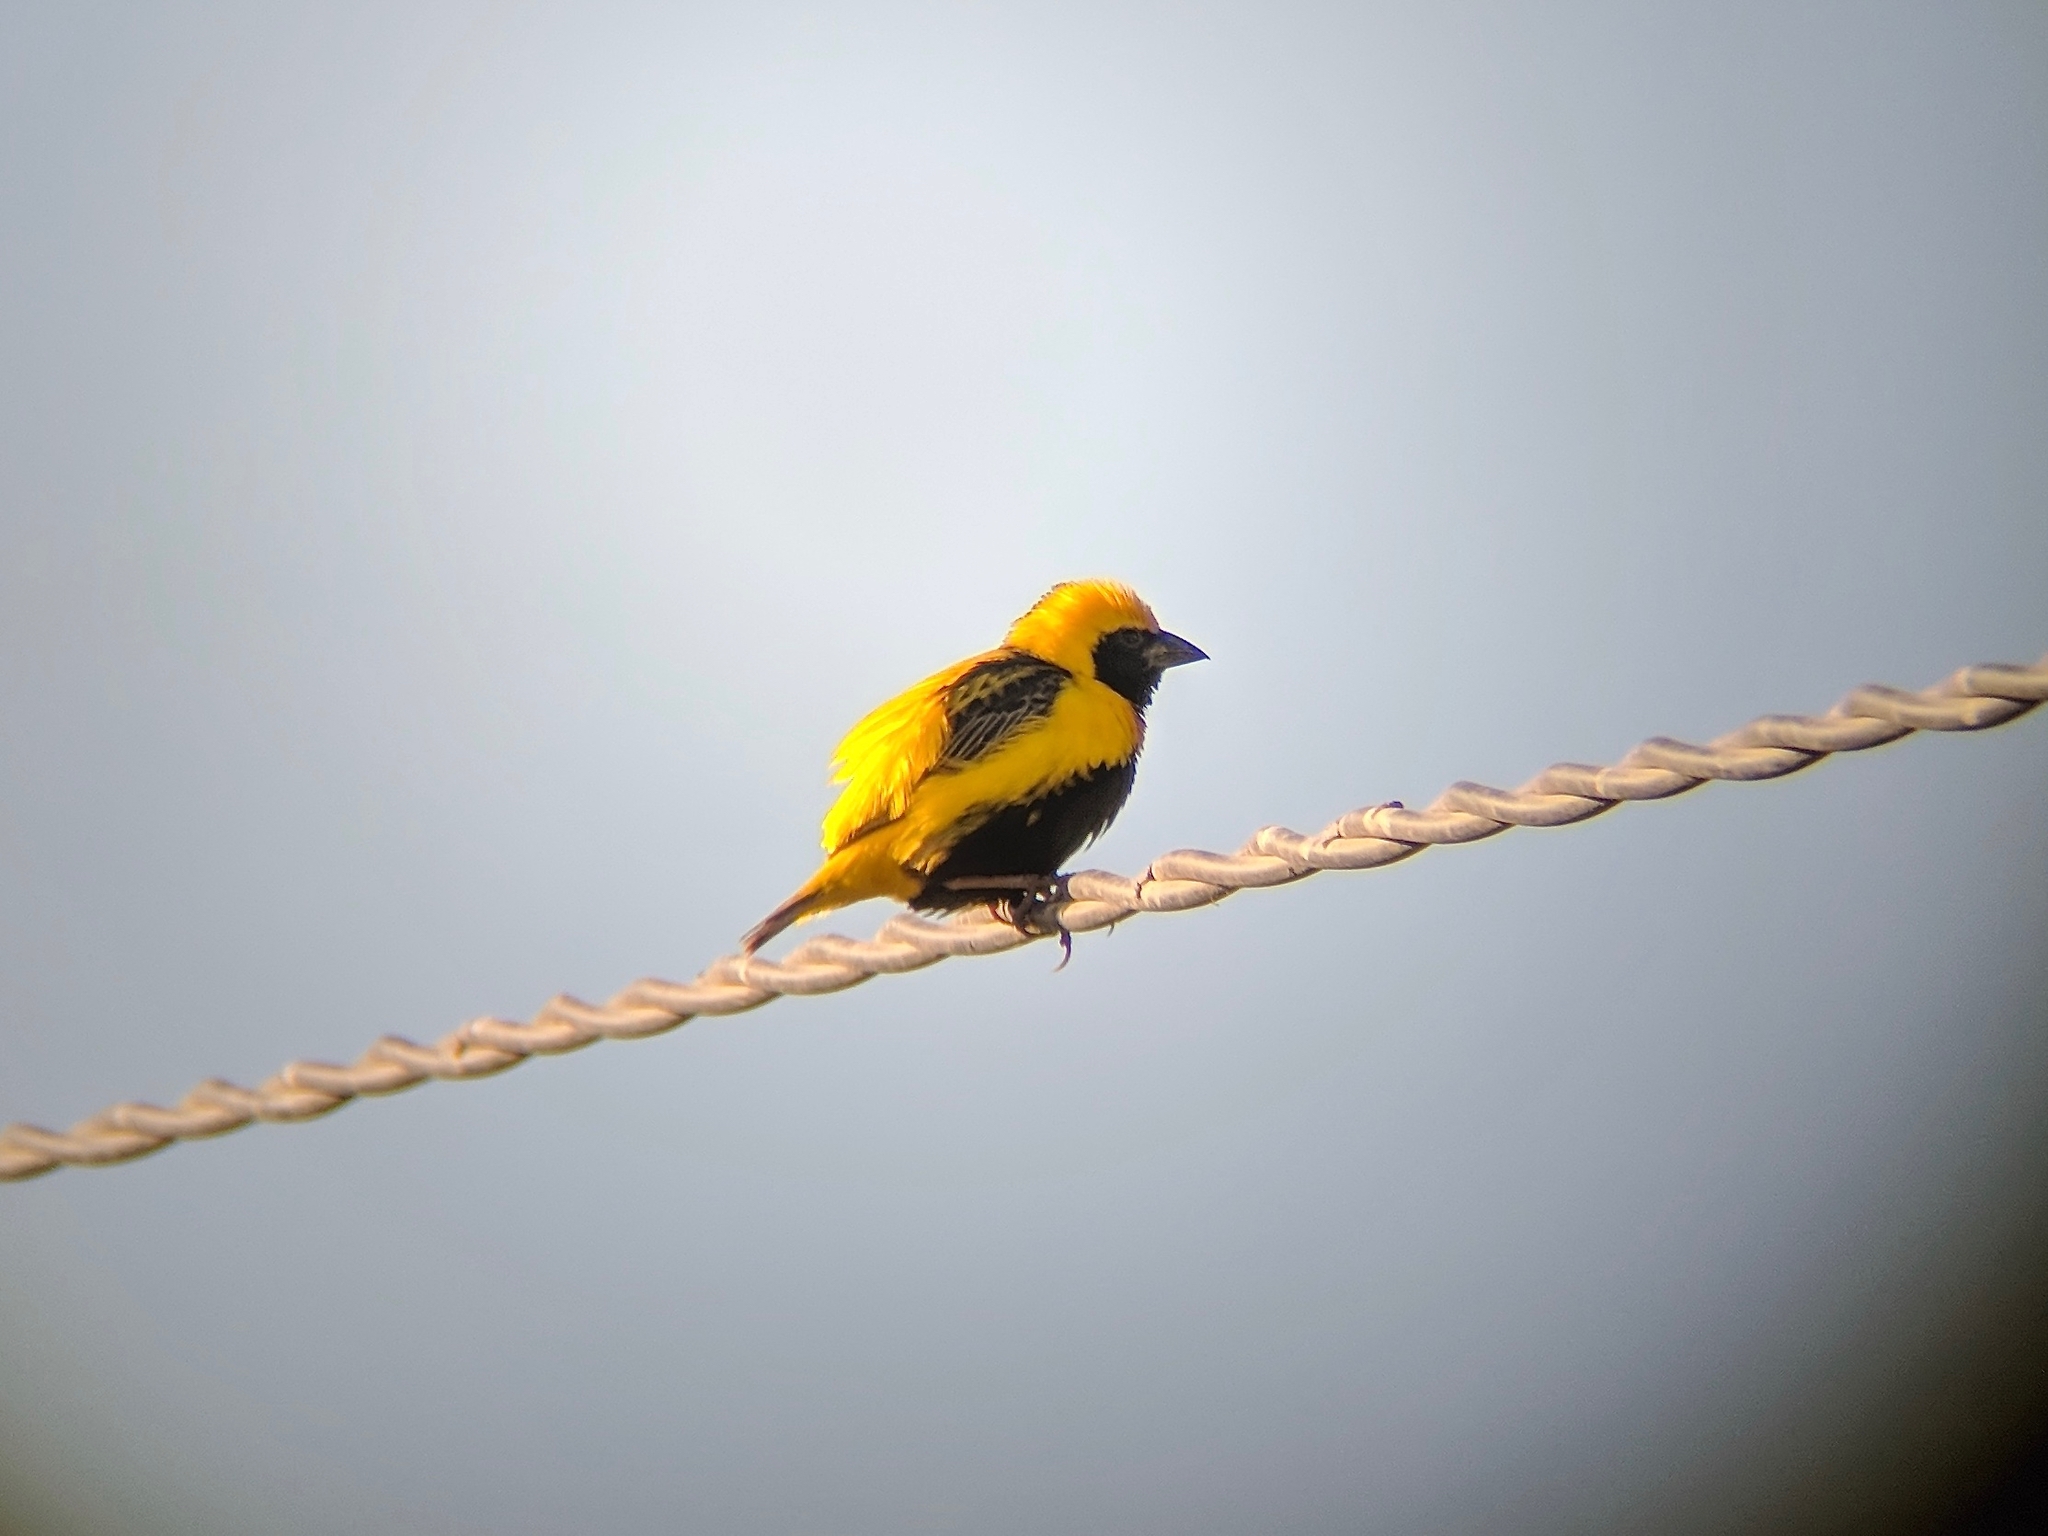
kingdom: Animalia
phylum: Chordata
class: Aves
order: Passeriformes
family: Ploceidae
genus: Euplectes
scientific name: Euplectes afer
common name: Yellow-crowned bishop
